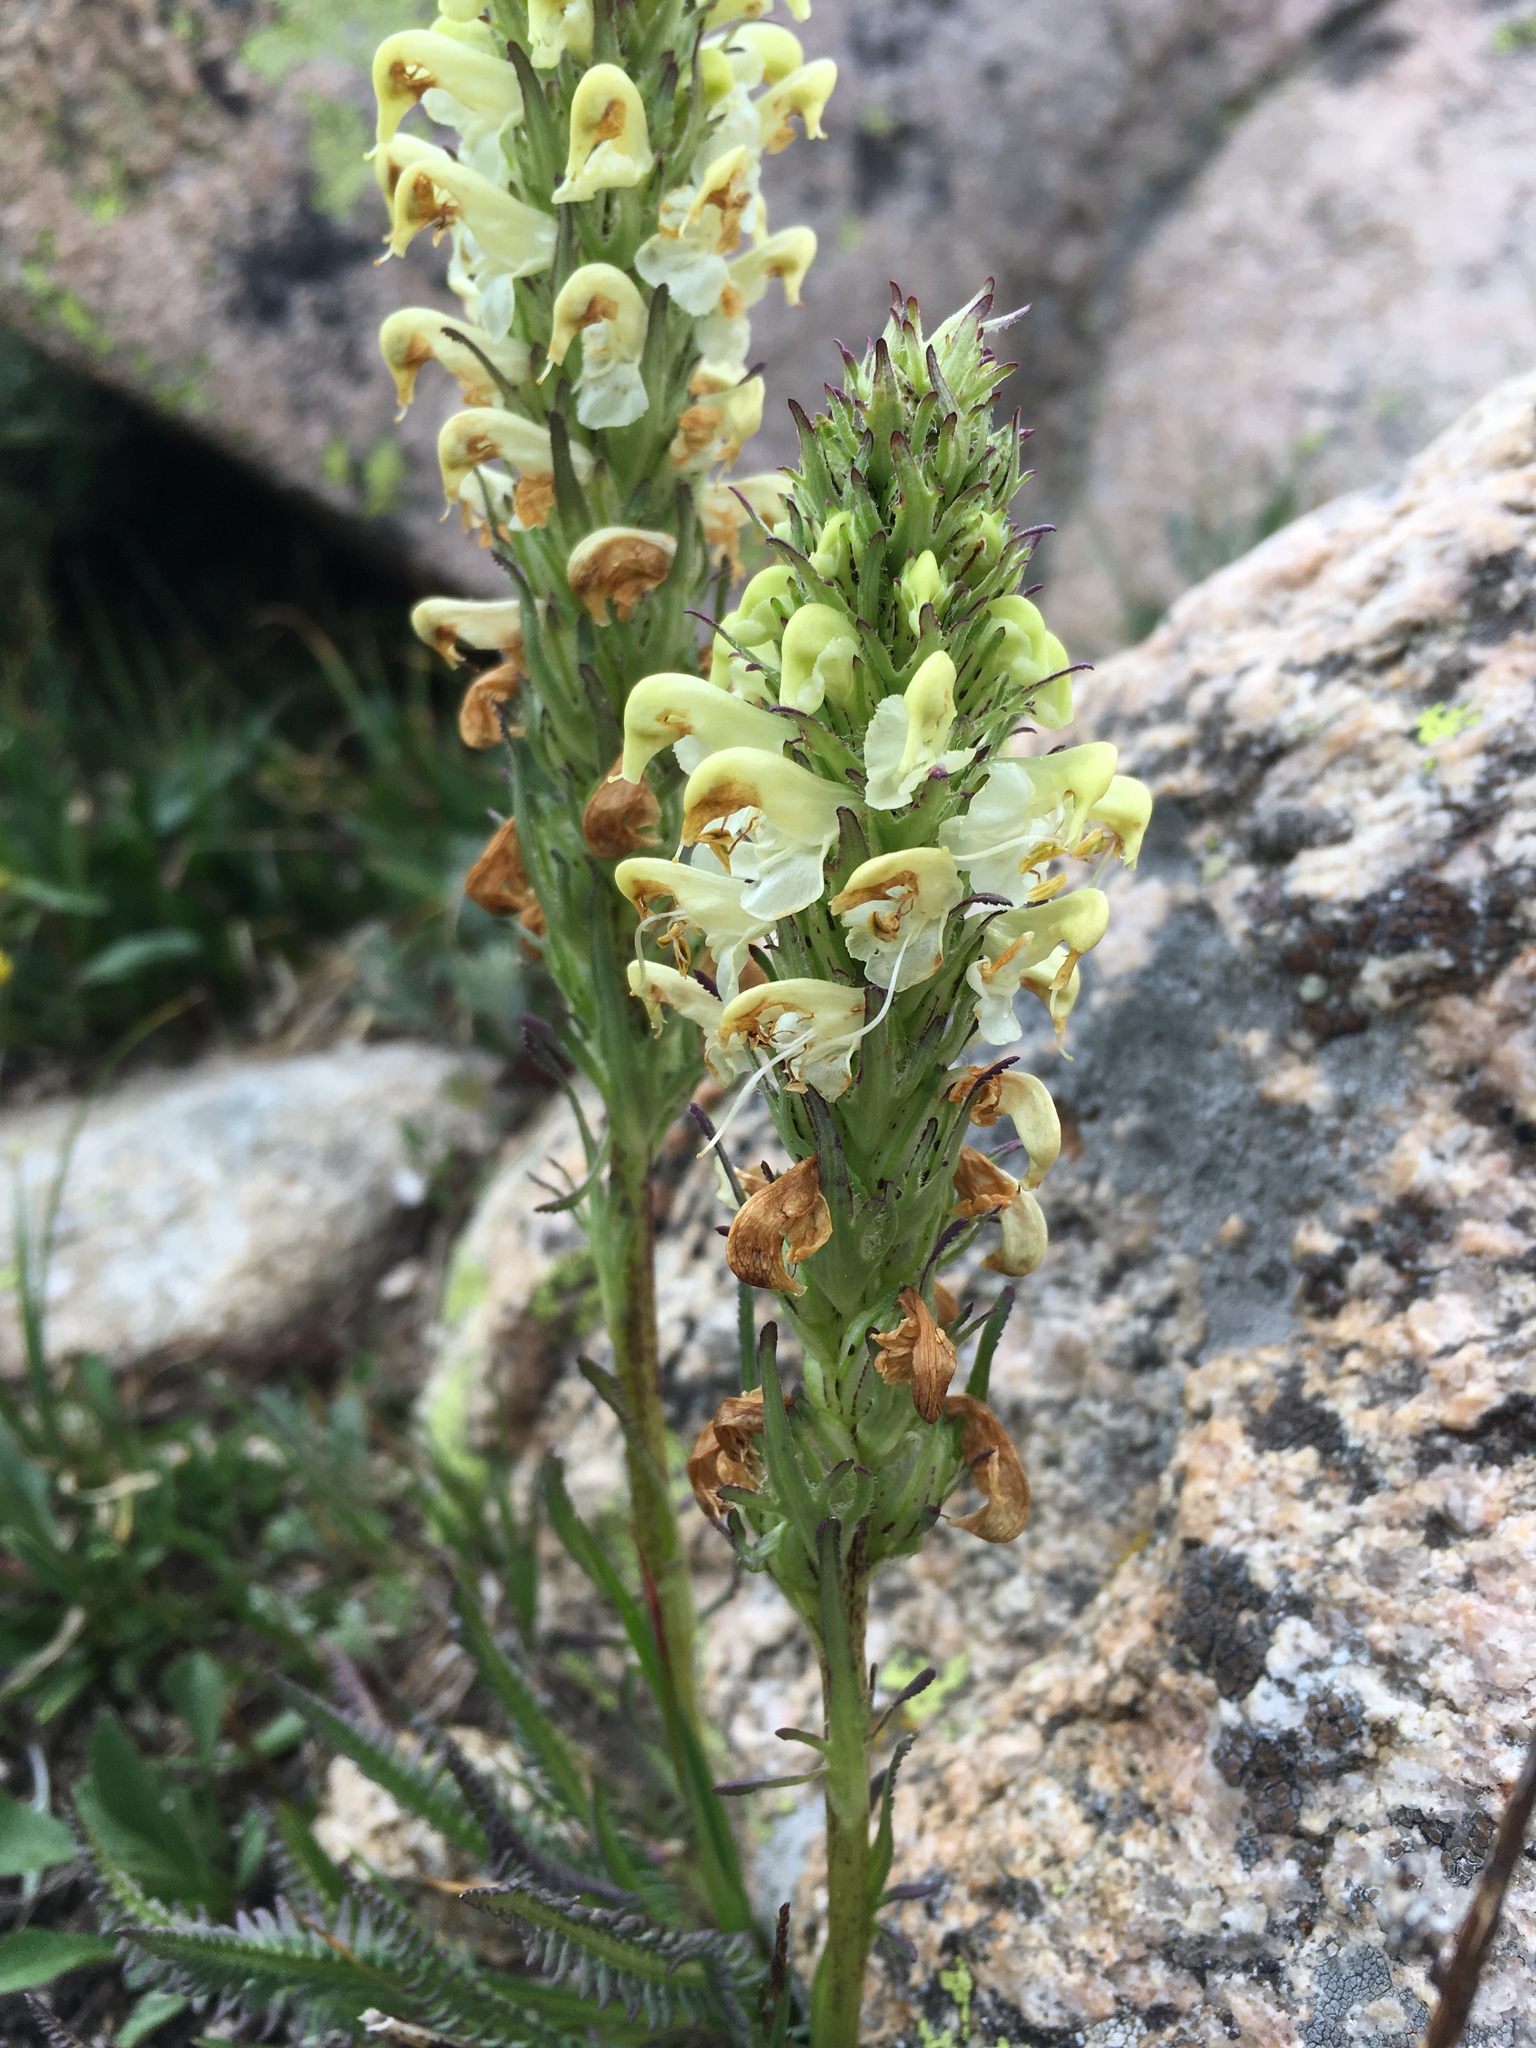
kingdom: Plantae
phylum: Tracheophyta
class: Magnoliopsida
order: Lamiales
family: Orobanchaceae
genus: Pedicularis
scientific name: Pedicularis parryi
